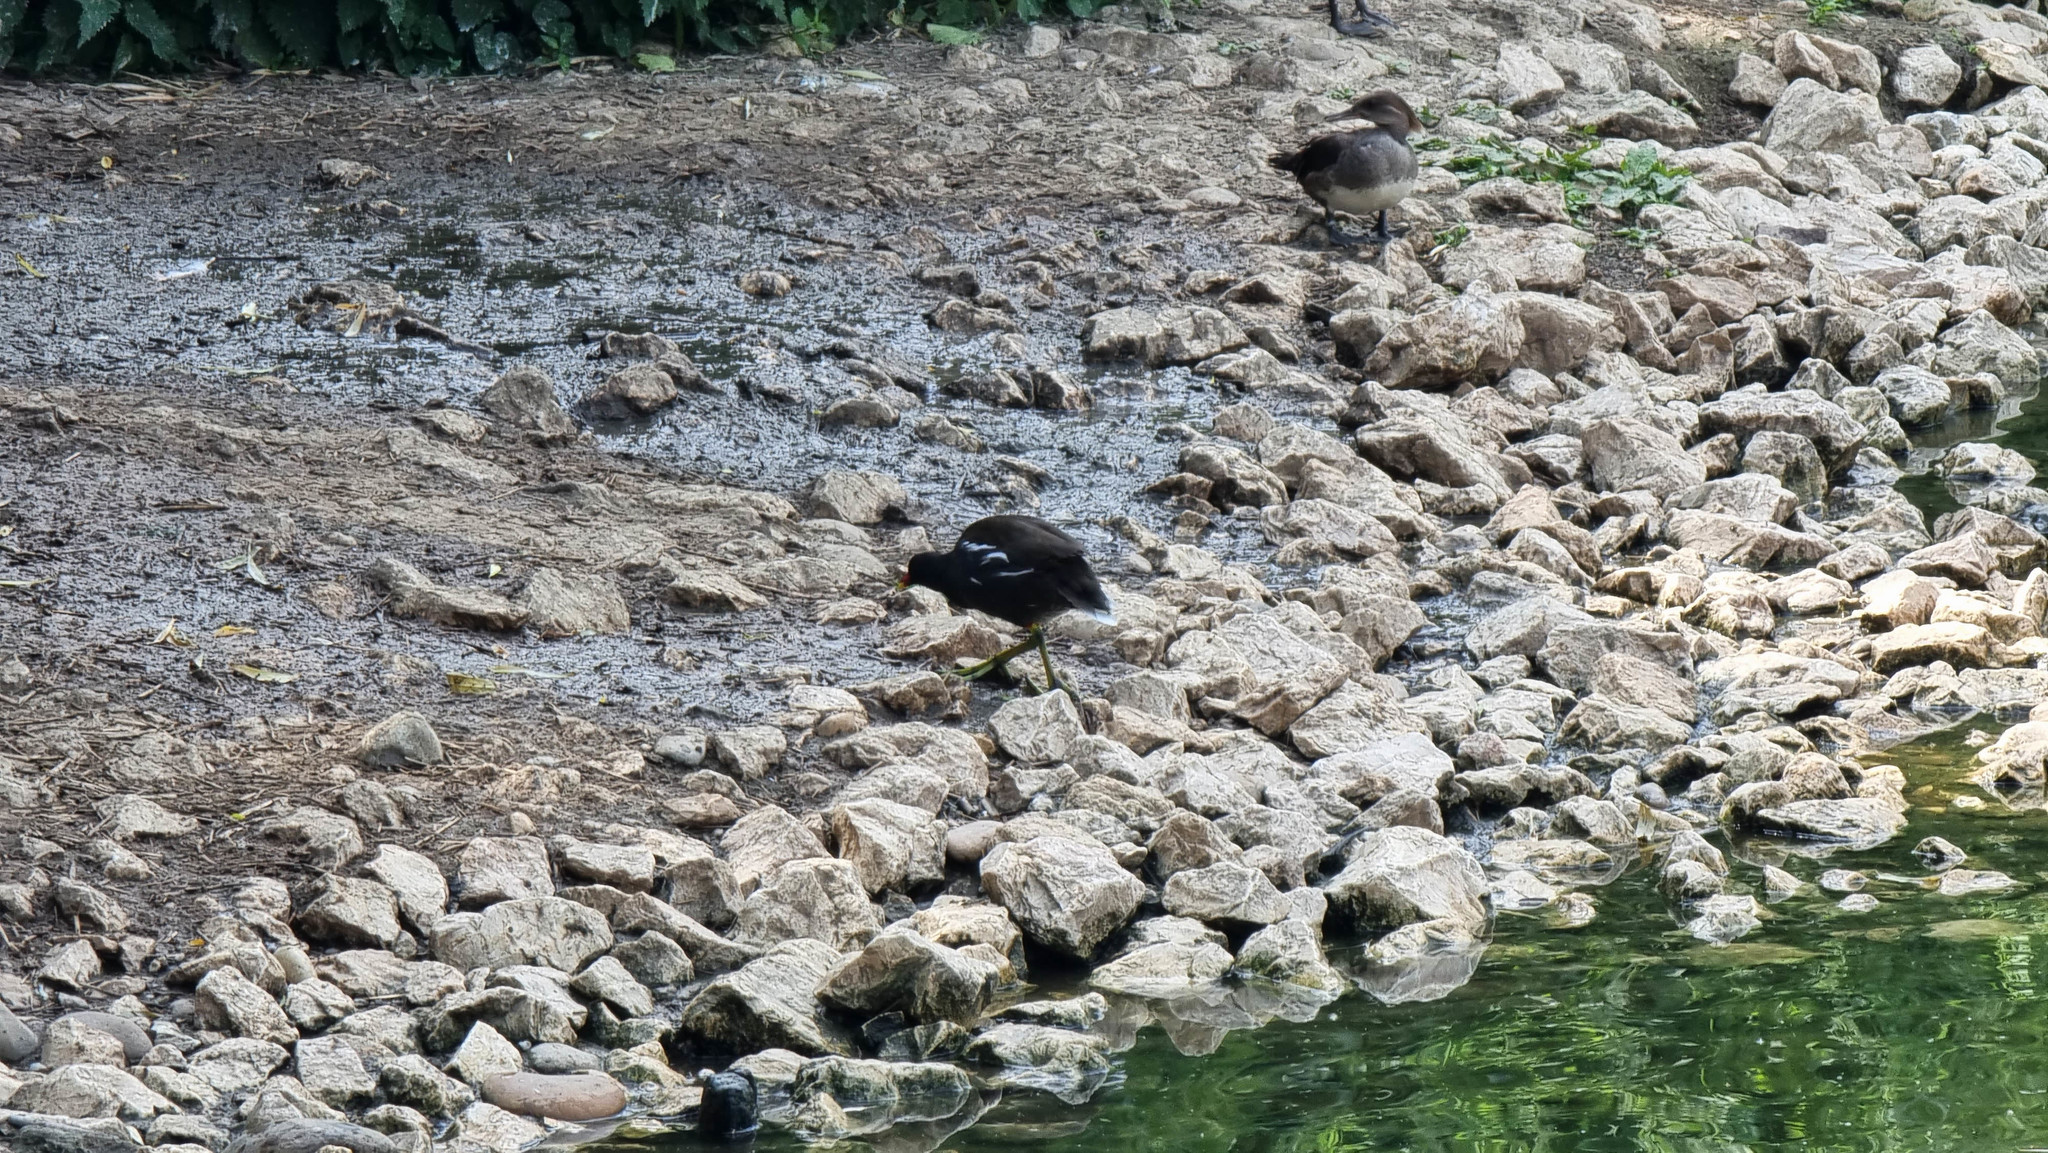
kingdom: Animalia
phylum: Chordata
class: Aves
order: Gruiformes
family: Rallidae
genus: Gallinula
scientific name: Gallinula chloropus
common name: Common moorhen
